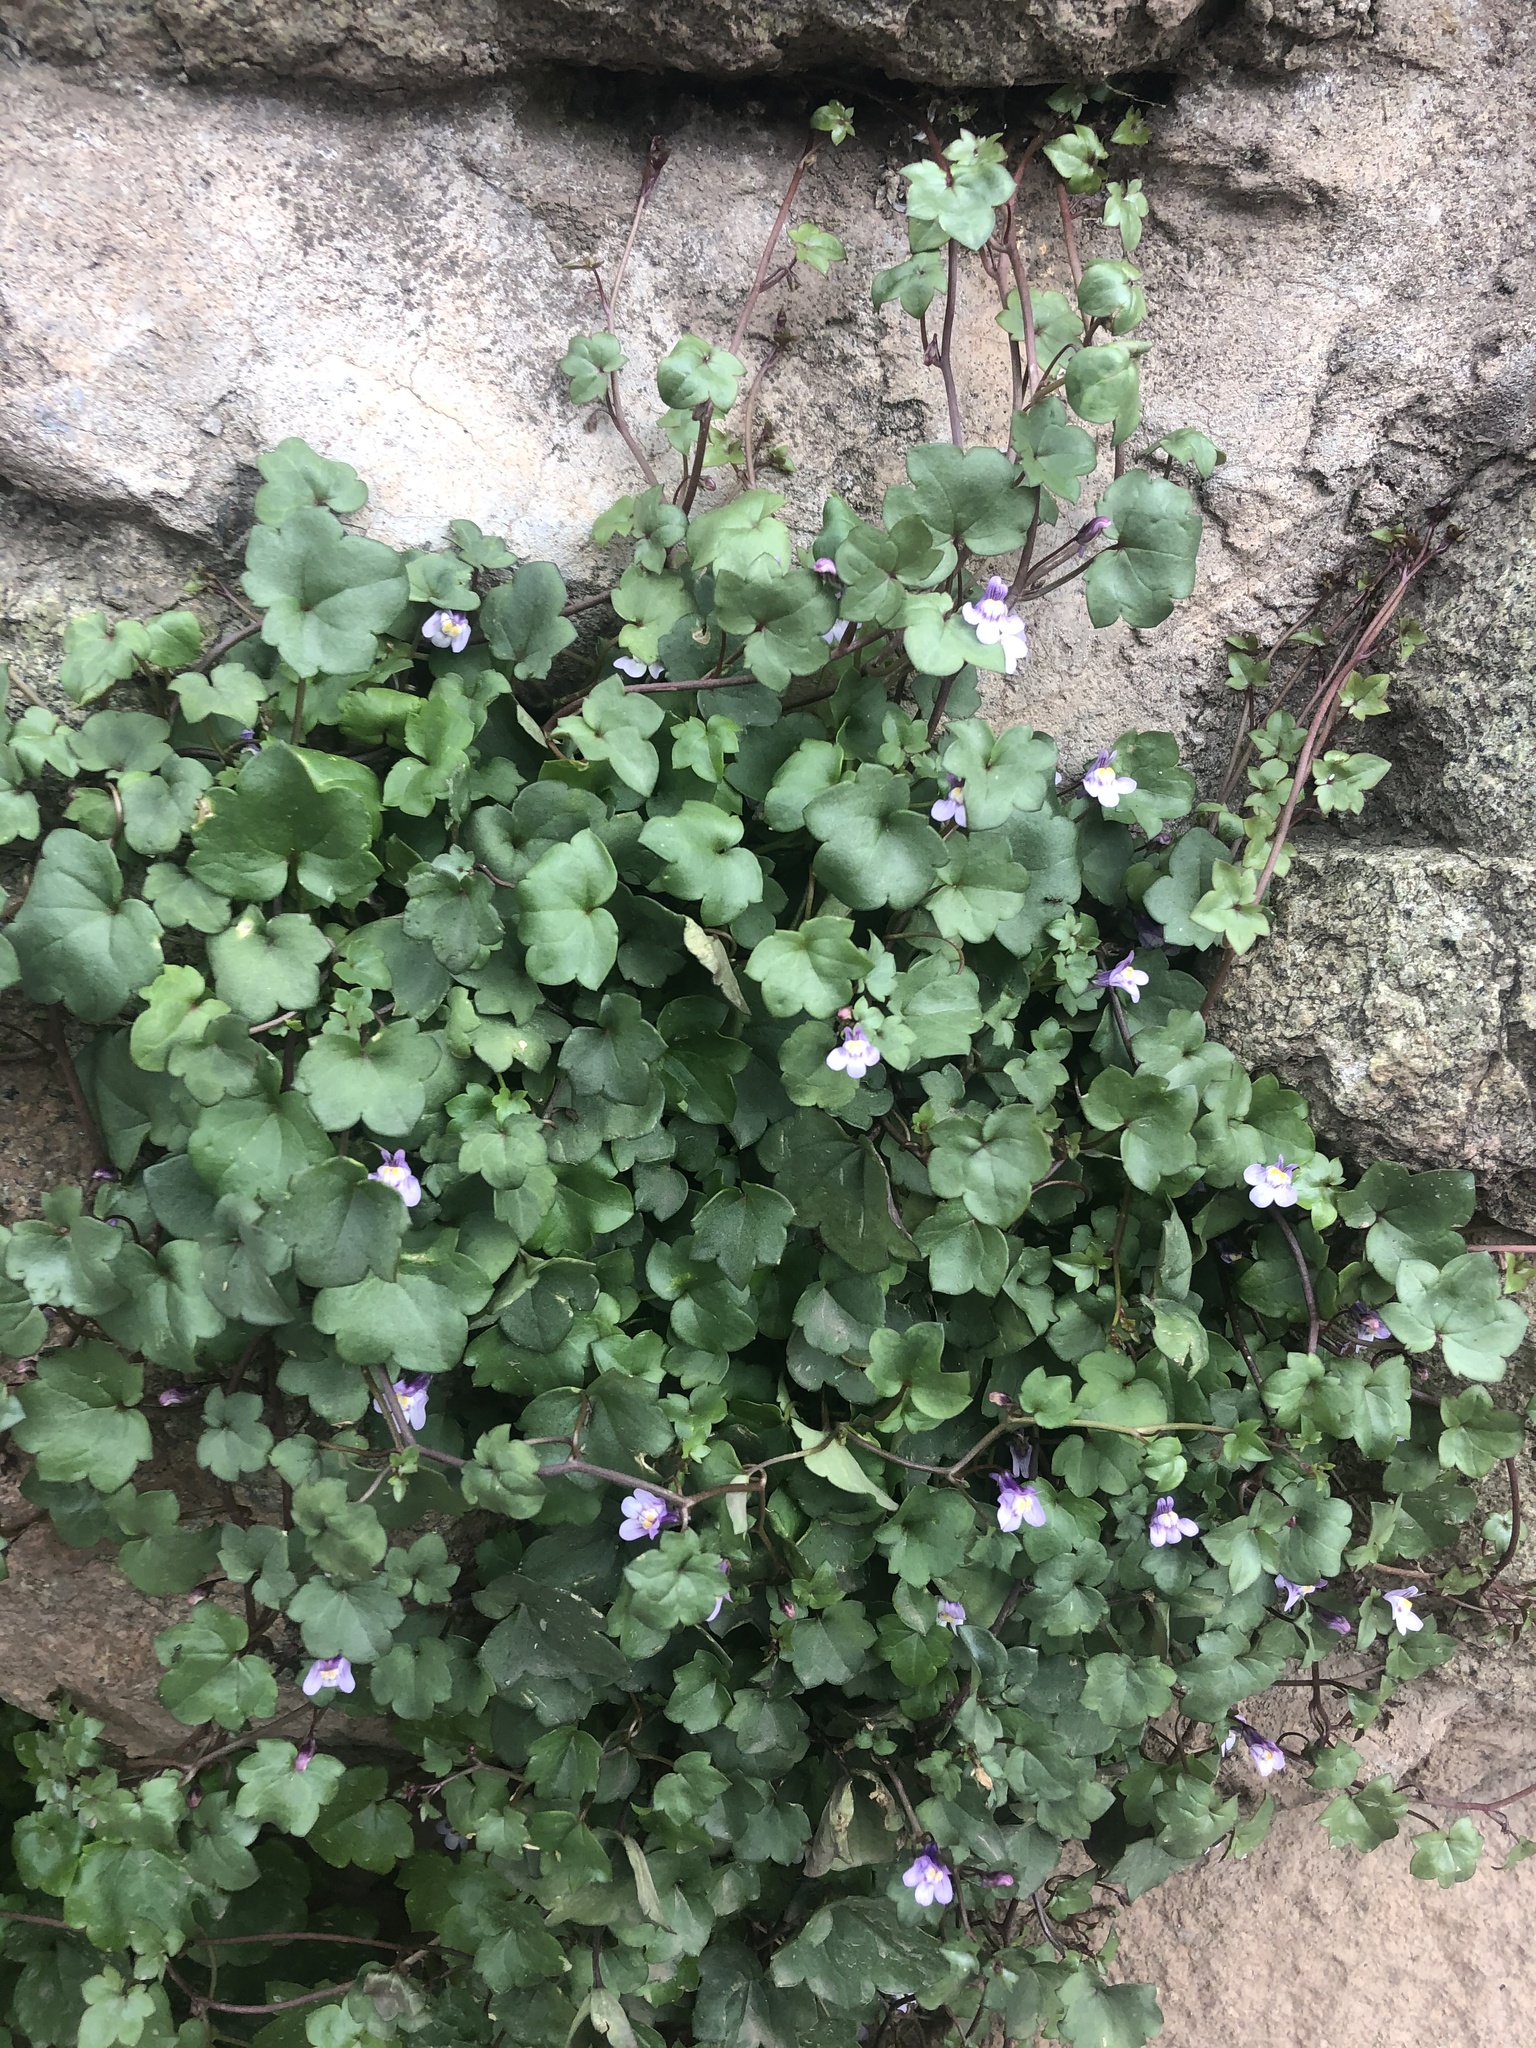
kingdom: Plantae
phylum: Tracheophyta
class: Magnoliopsida
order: Lamiales
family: Plantaginaceae
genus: Cymbalaria
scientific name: Cymbalaria muralis
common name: Ivy-leaved toadflax
